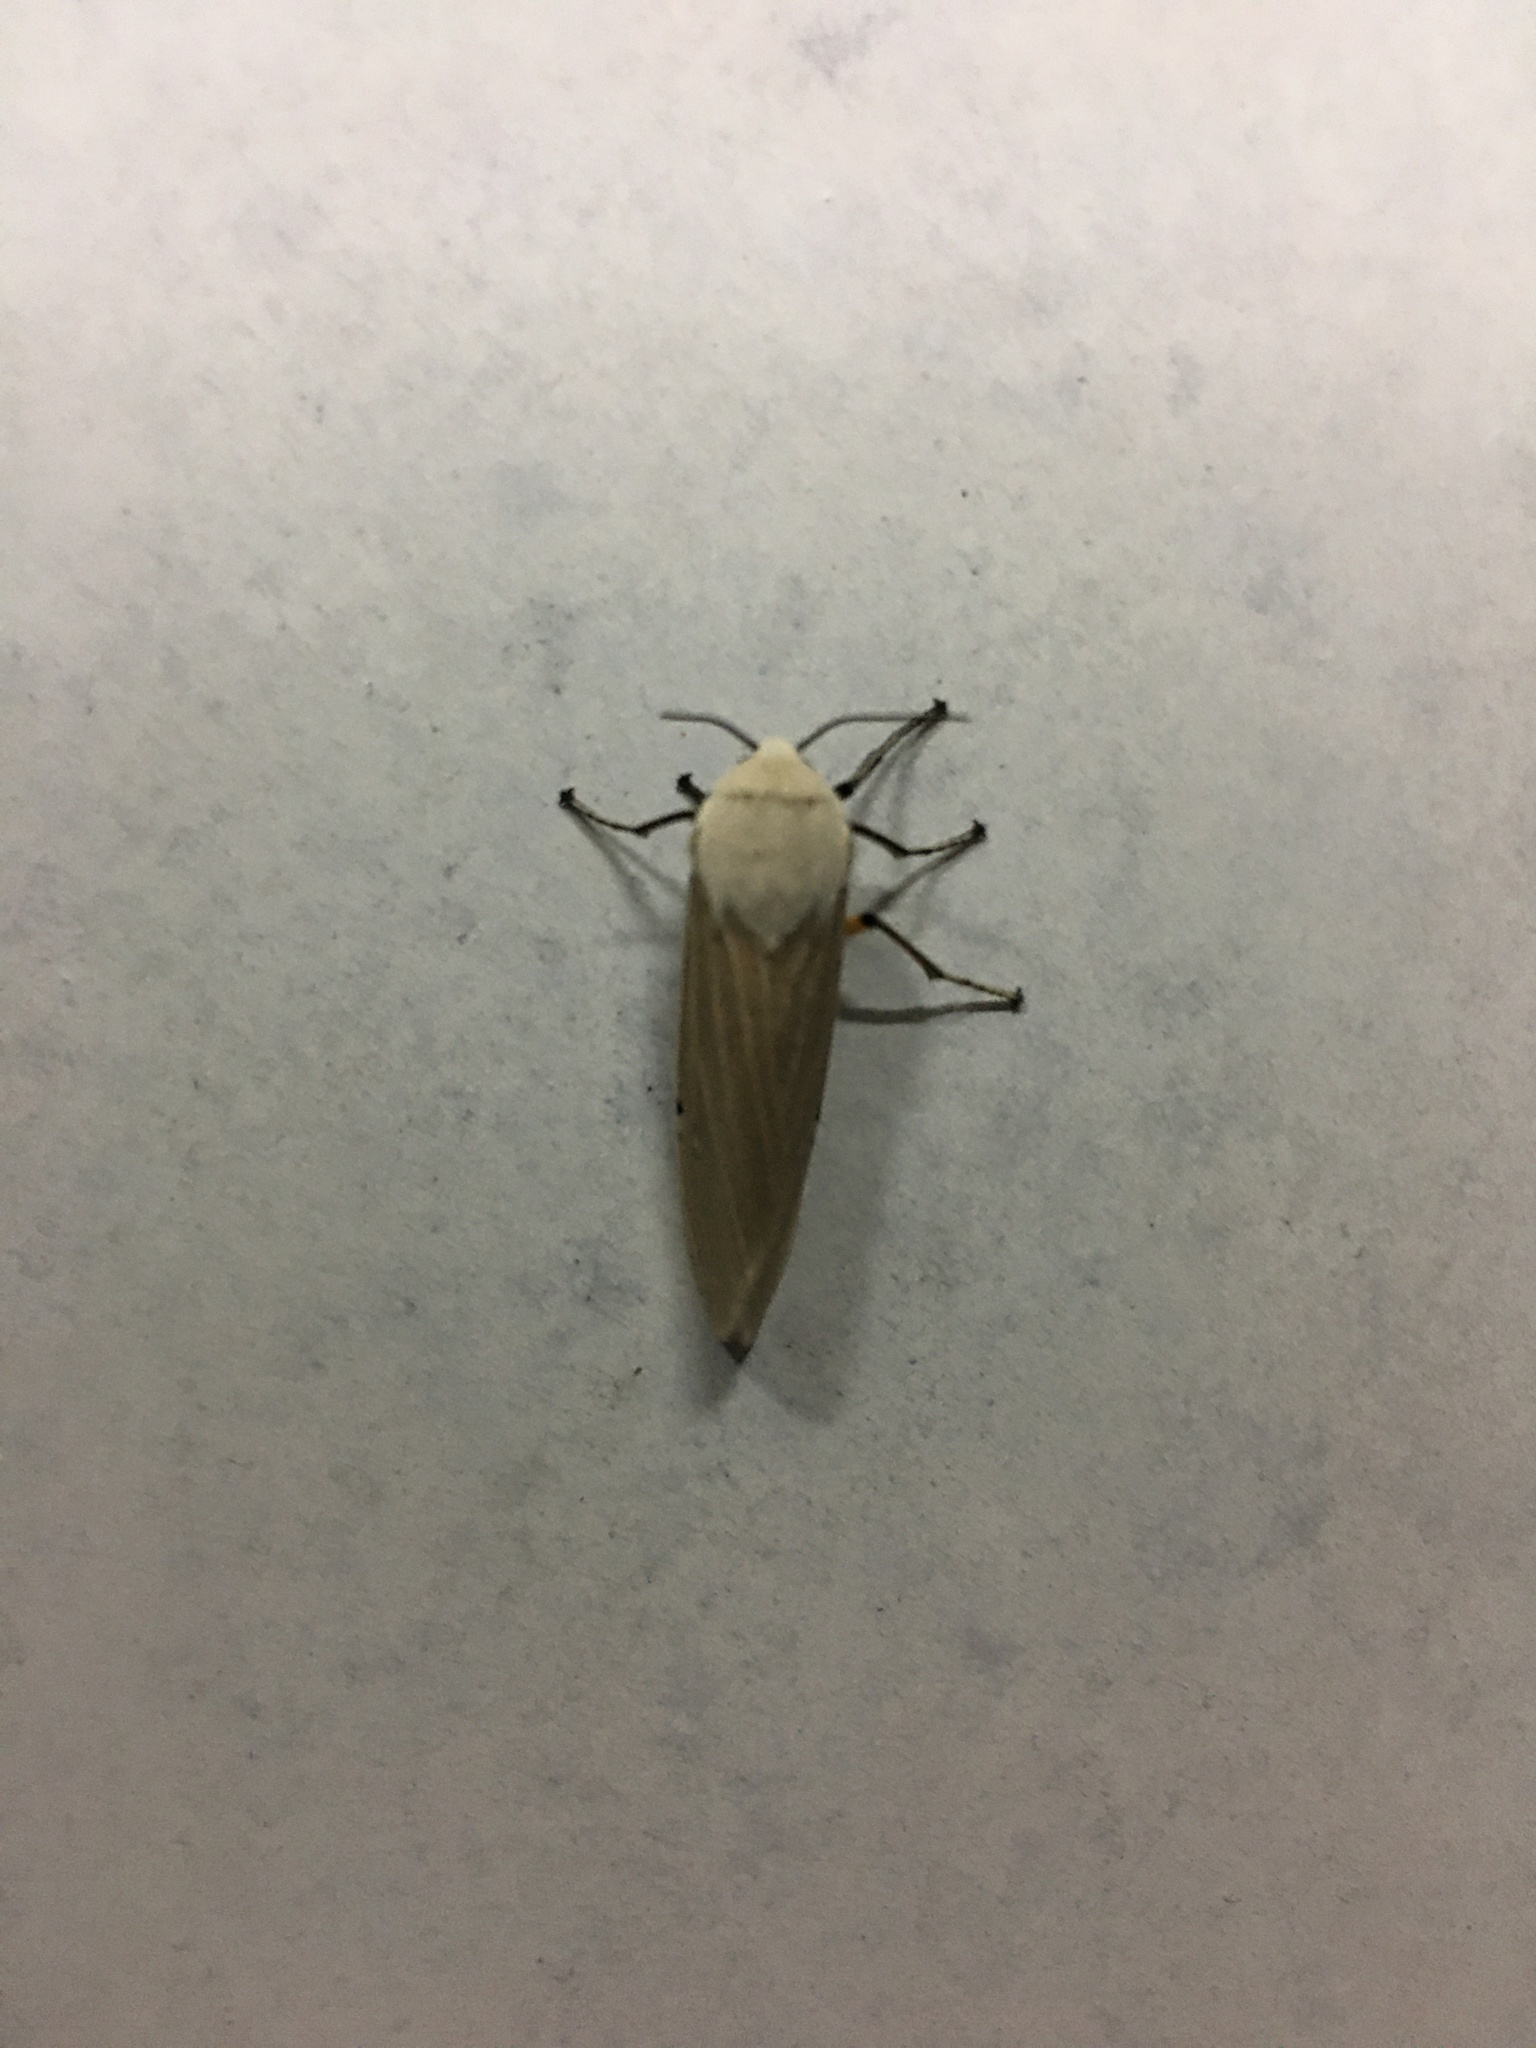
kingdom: Animalia
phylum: Arthropoda
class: Insecta
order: Lepidoptera
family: Erebidae
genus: Creatonotos
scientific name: Creatonotos transiens
